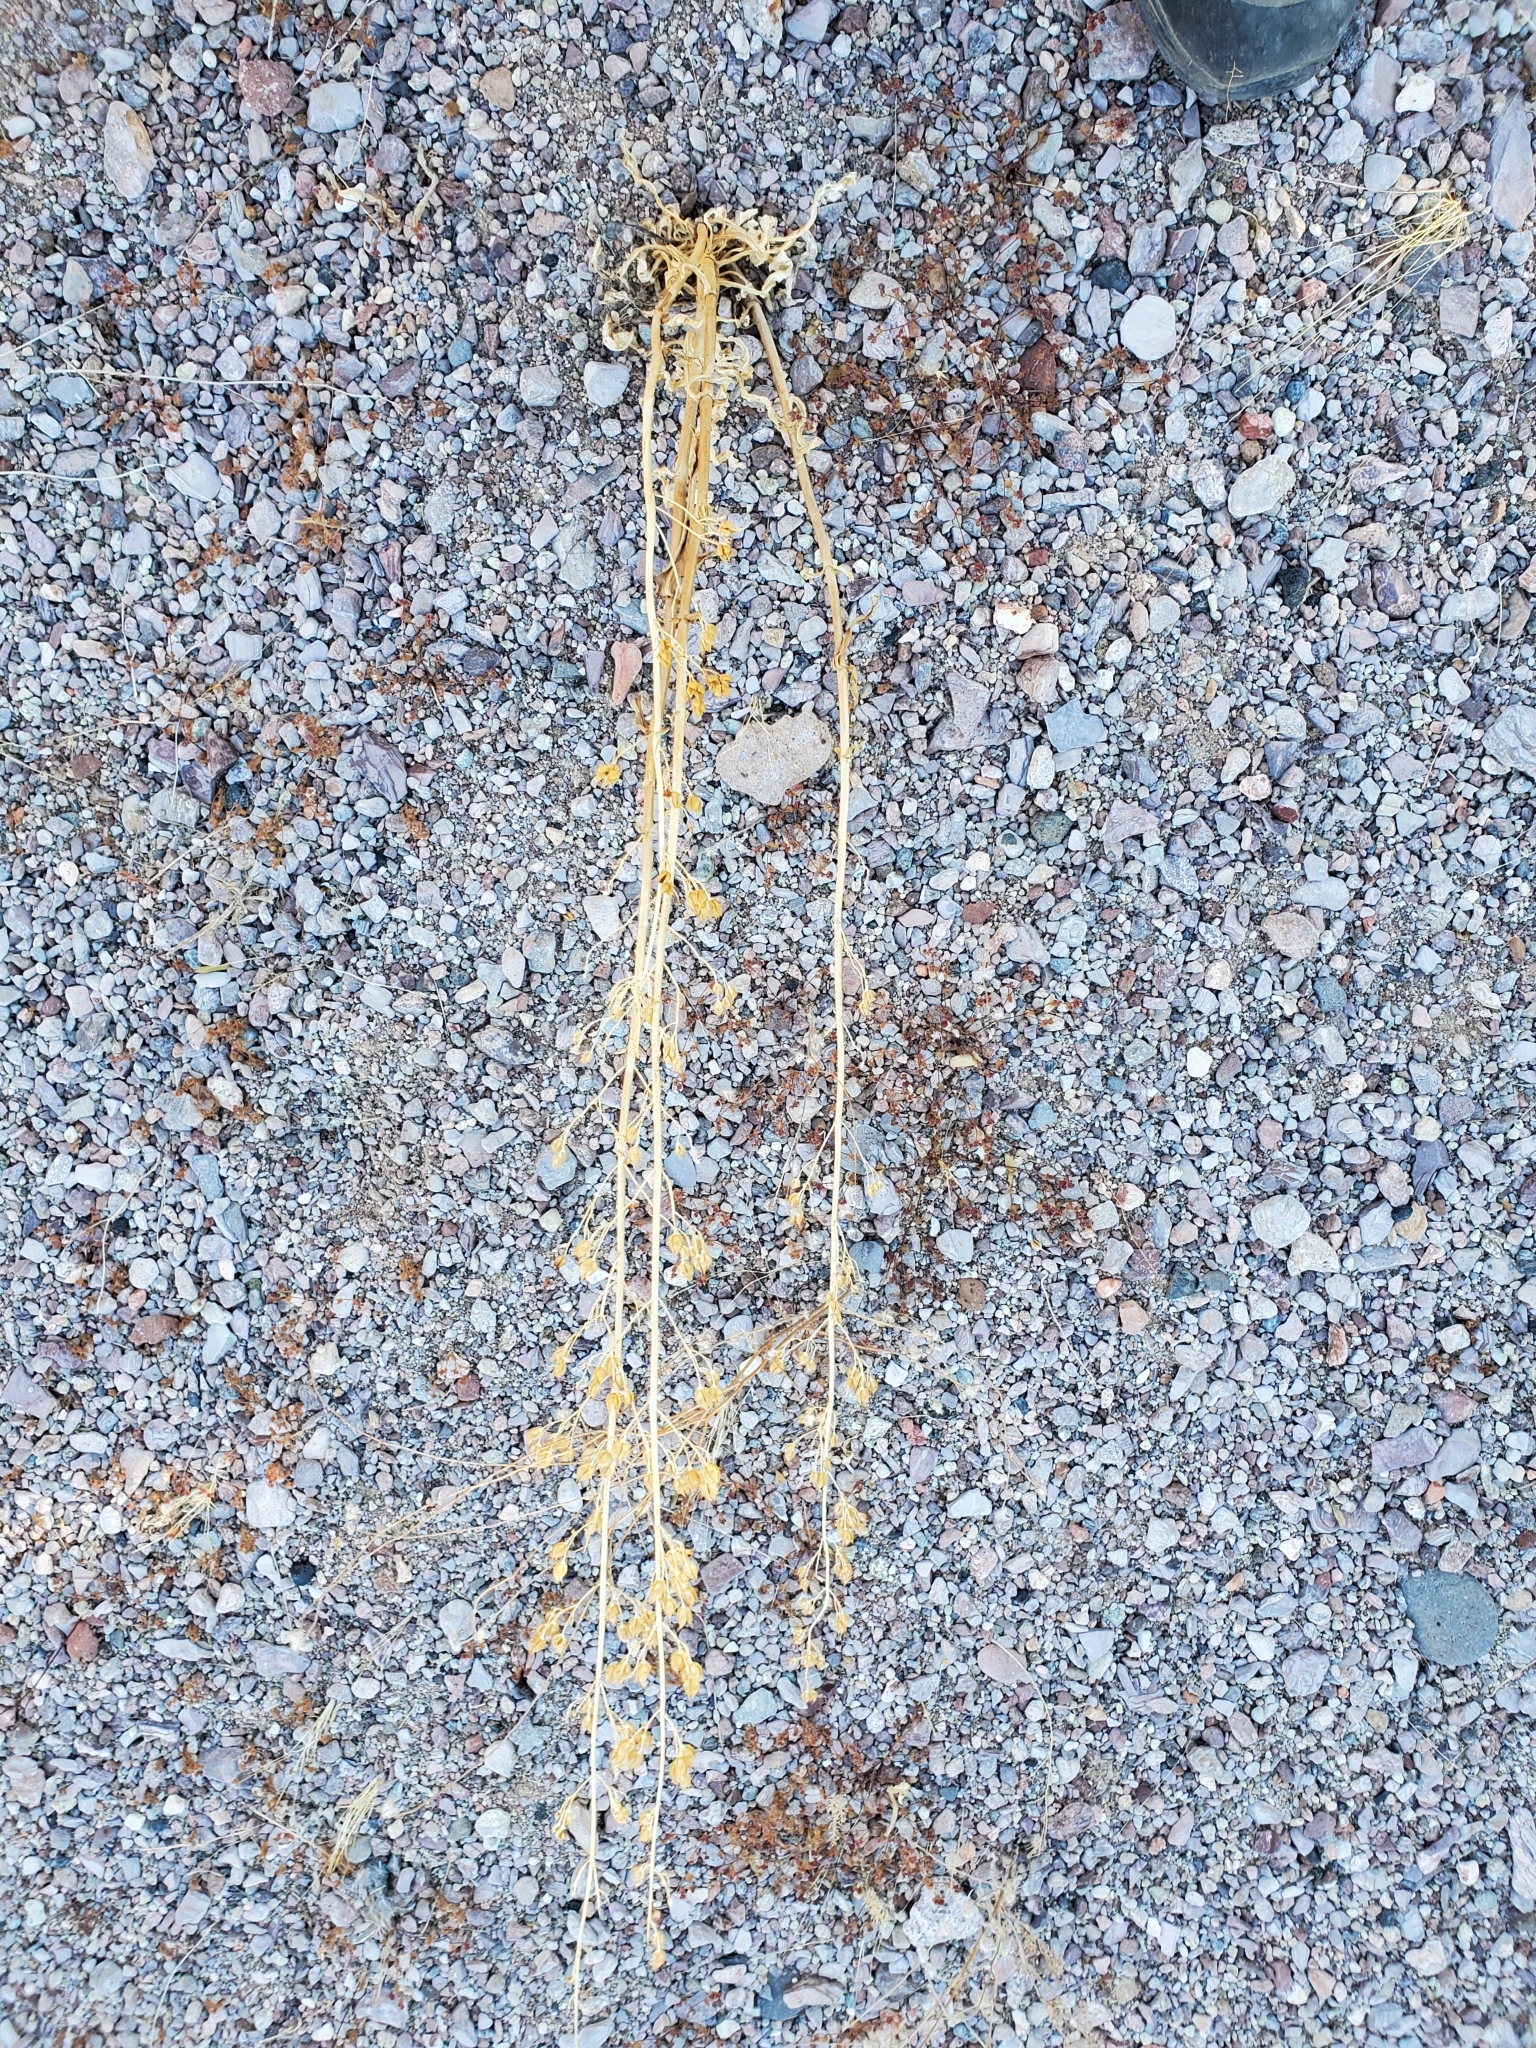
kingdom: Plantae
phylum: Tracheophyta
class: Magnoliopsida
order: Lamiales
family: Plantaginaceae
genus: Penstemon
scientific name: Penstemon
